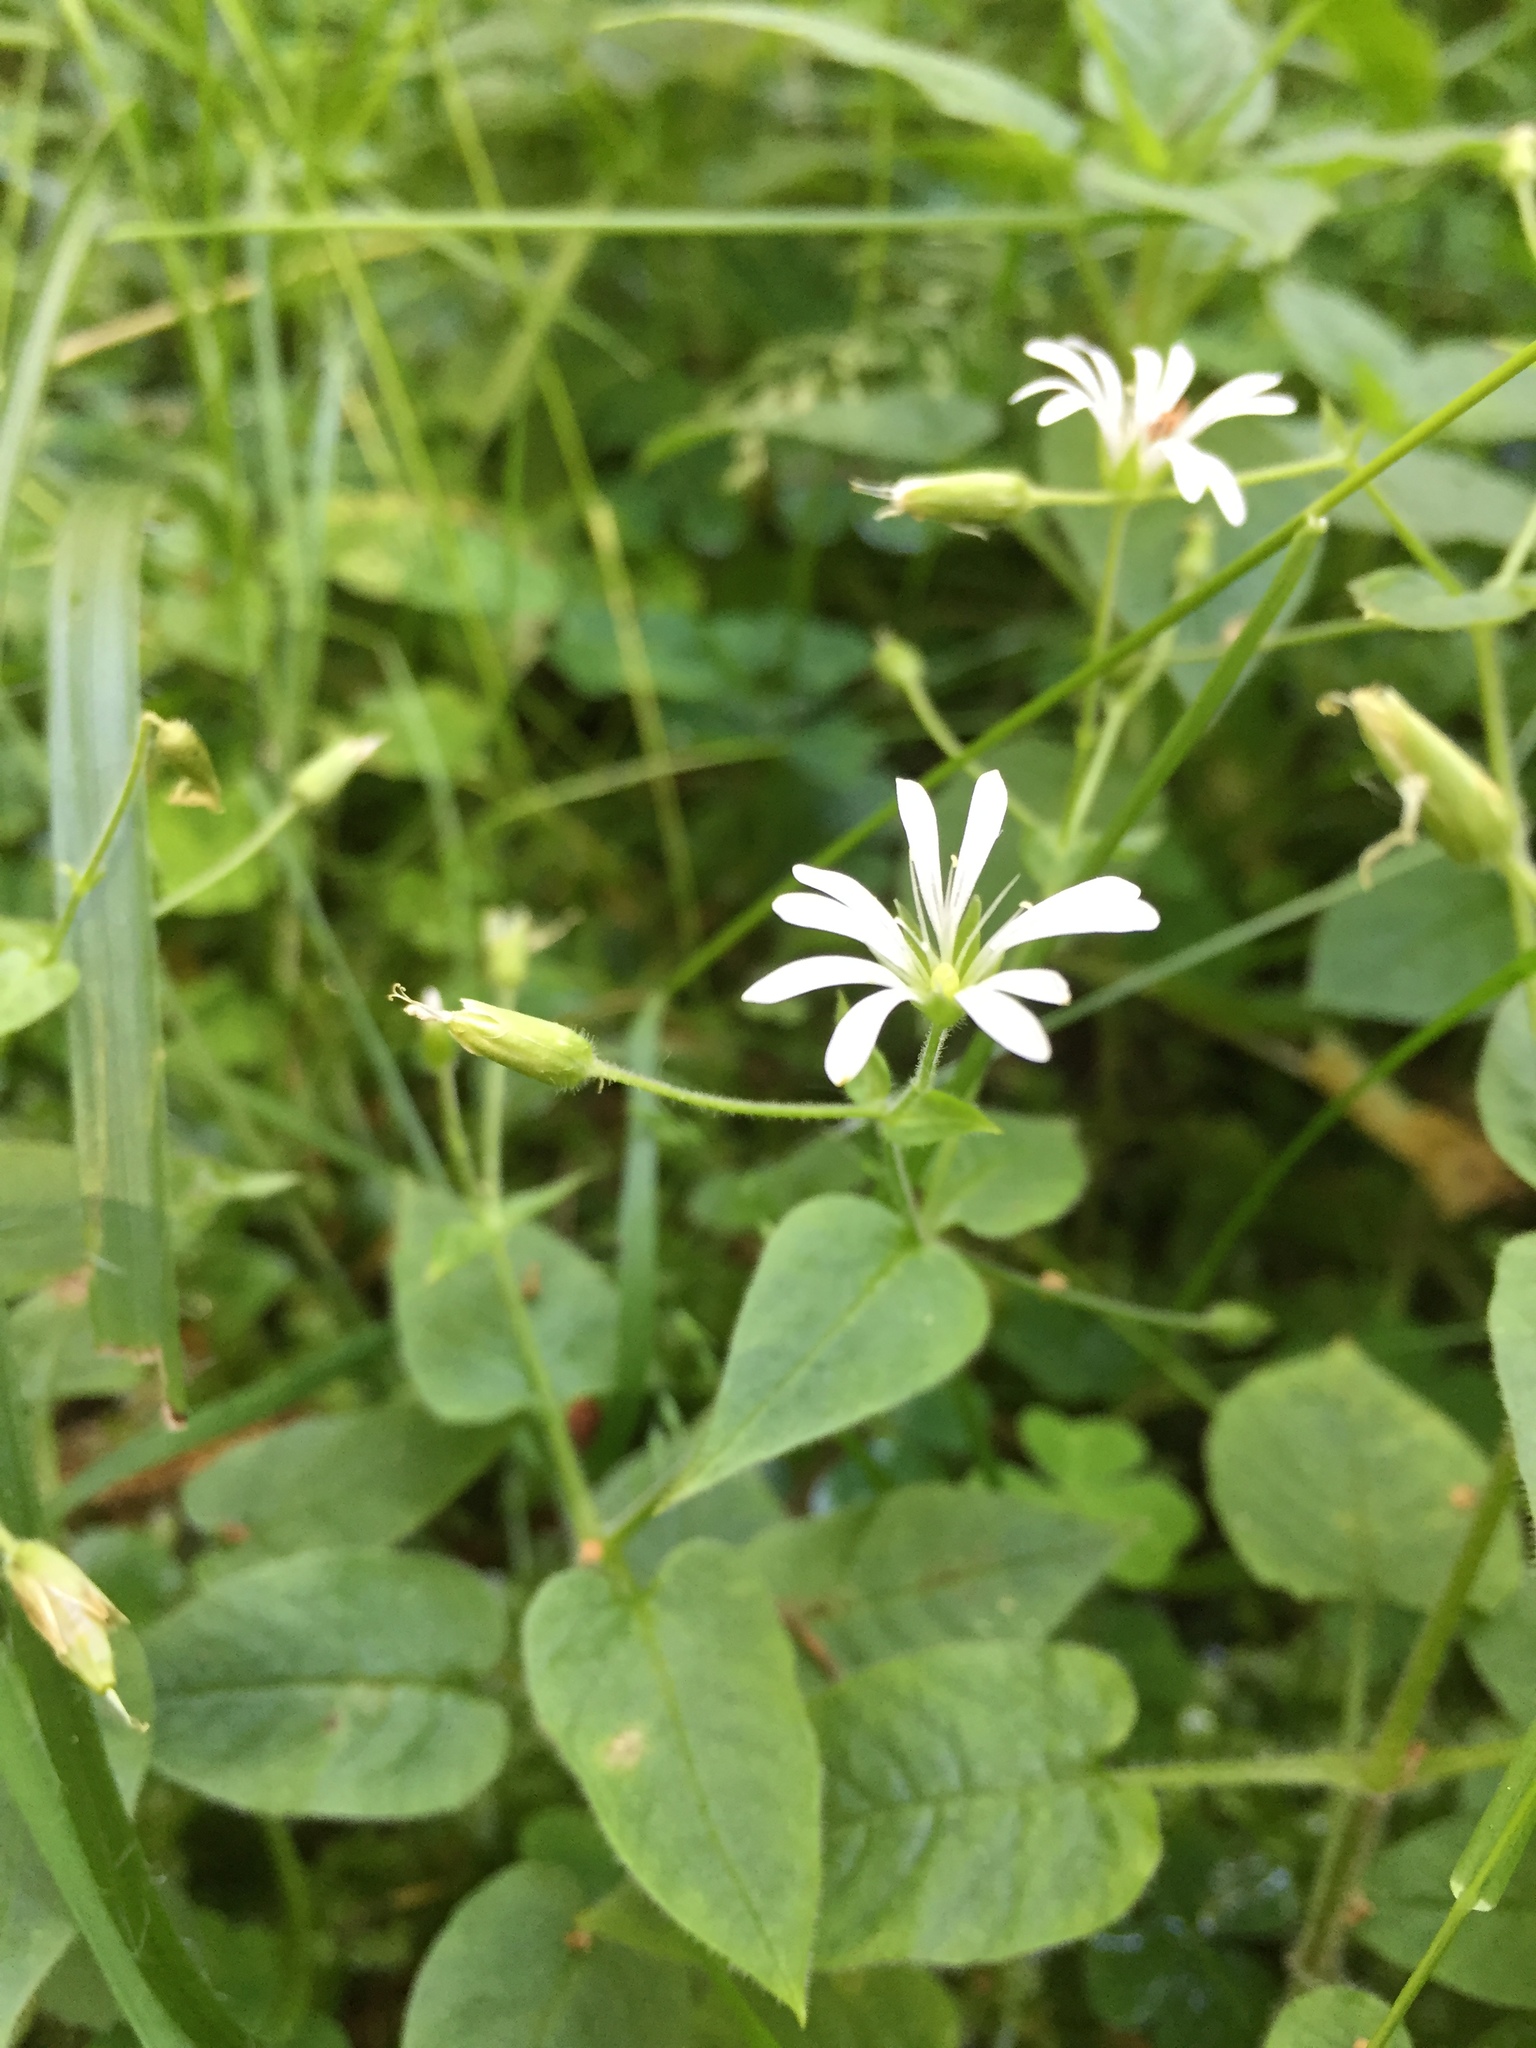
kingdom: Plantae
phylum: Tracheophyta
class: Magnoliopsida
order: Caryophyllales
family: Caryophyllaceae
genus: Stellaria
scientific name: Stellaria nemorum
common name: Wood stitchwort
